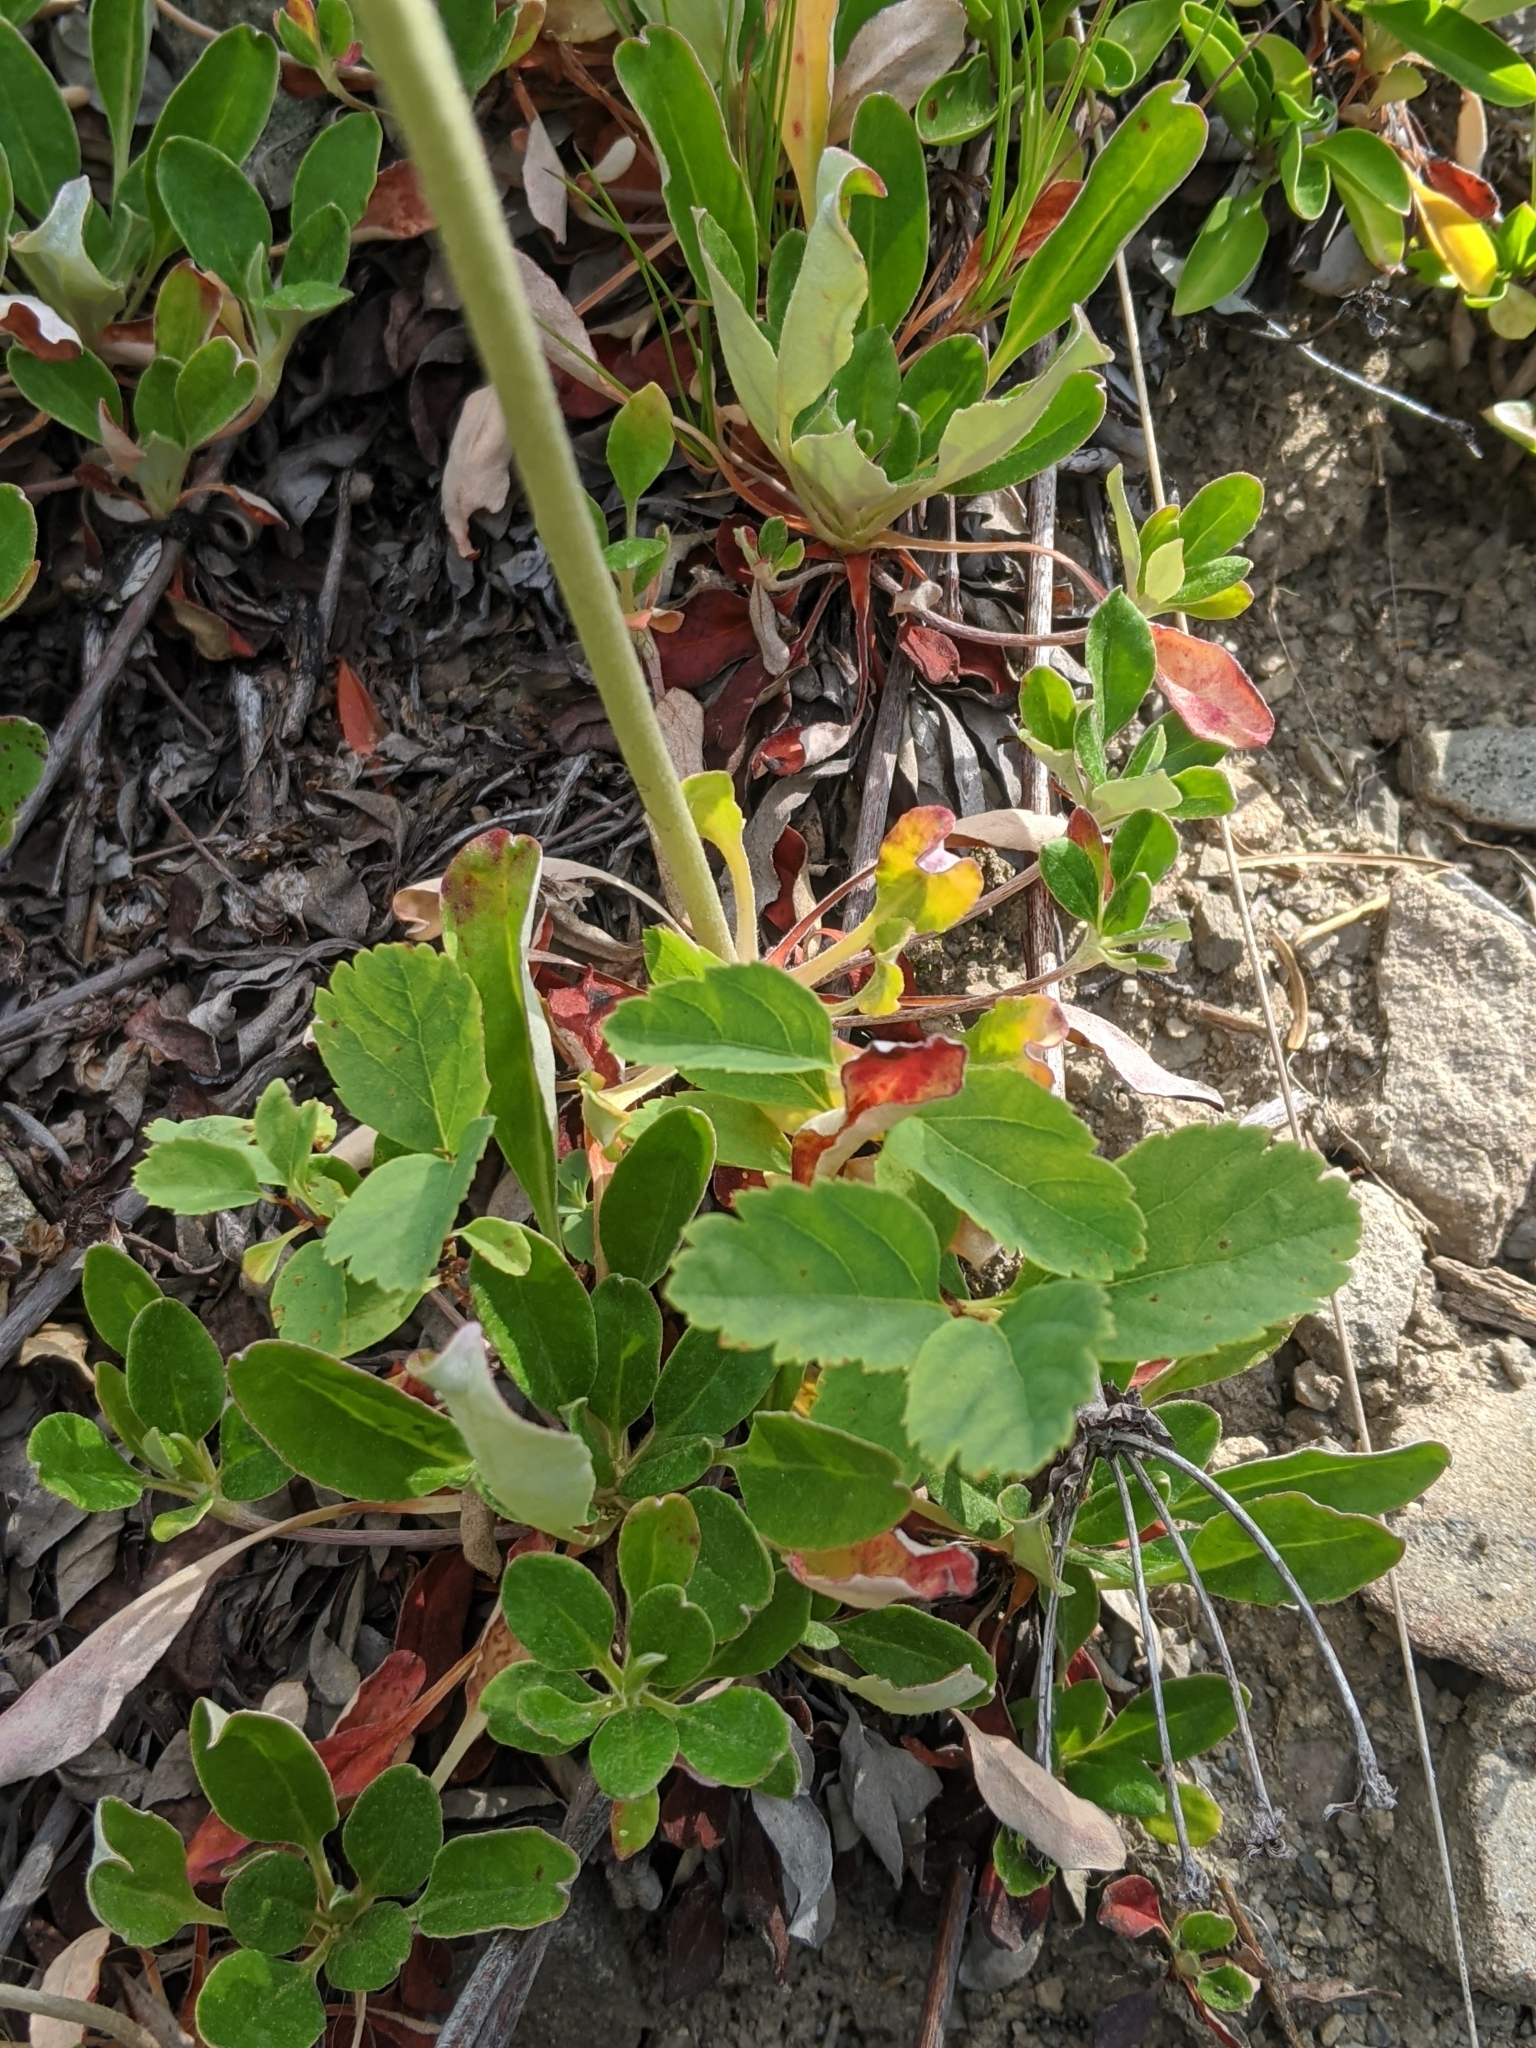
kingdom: Plantae
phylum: Tracheophyta
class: Magnoliopsida
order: Caryophyllales
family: Polygonaceae
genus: Eriogonum
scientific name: Eriogonum umbellatum
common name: Sulfur-buckwheat
